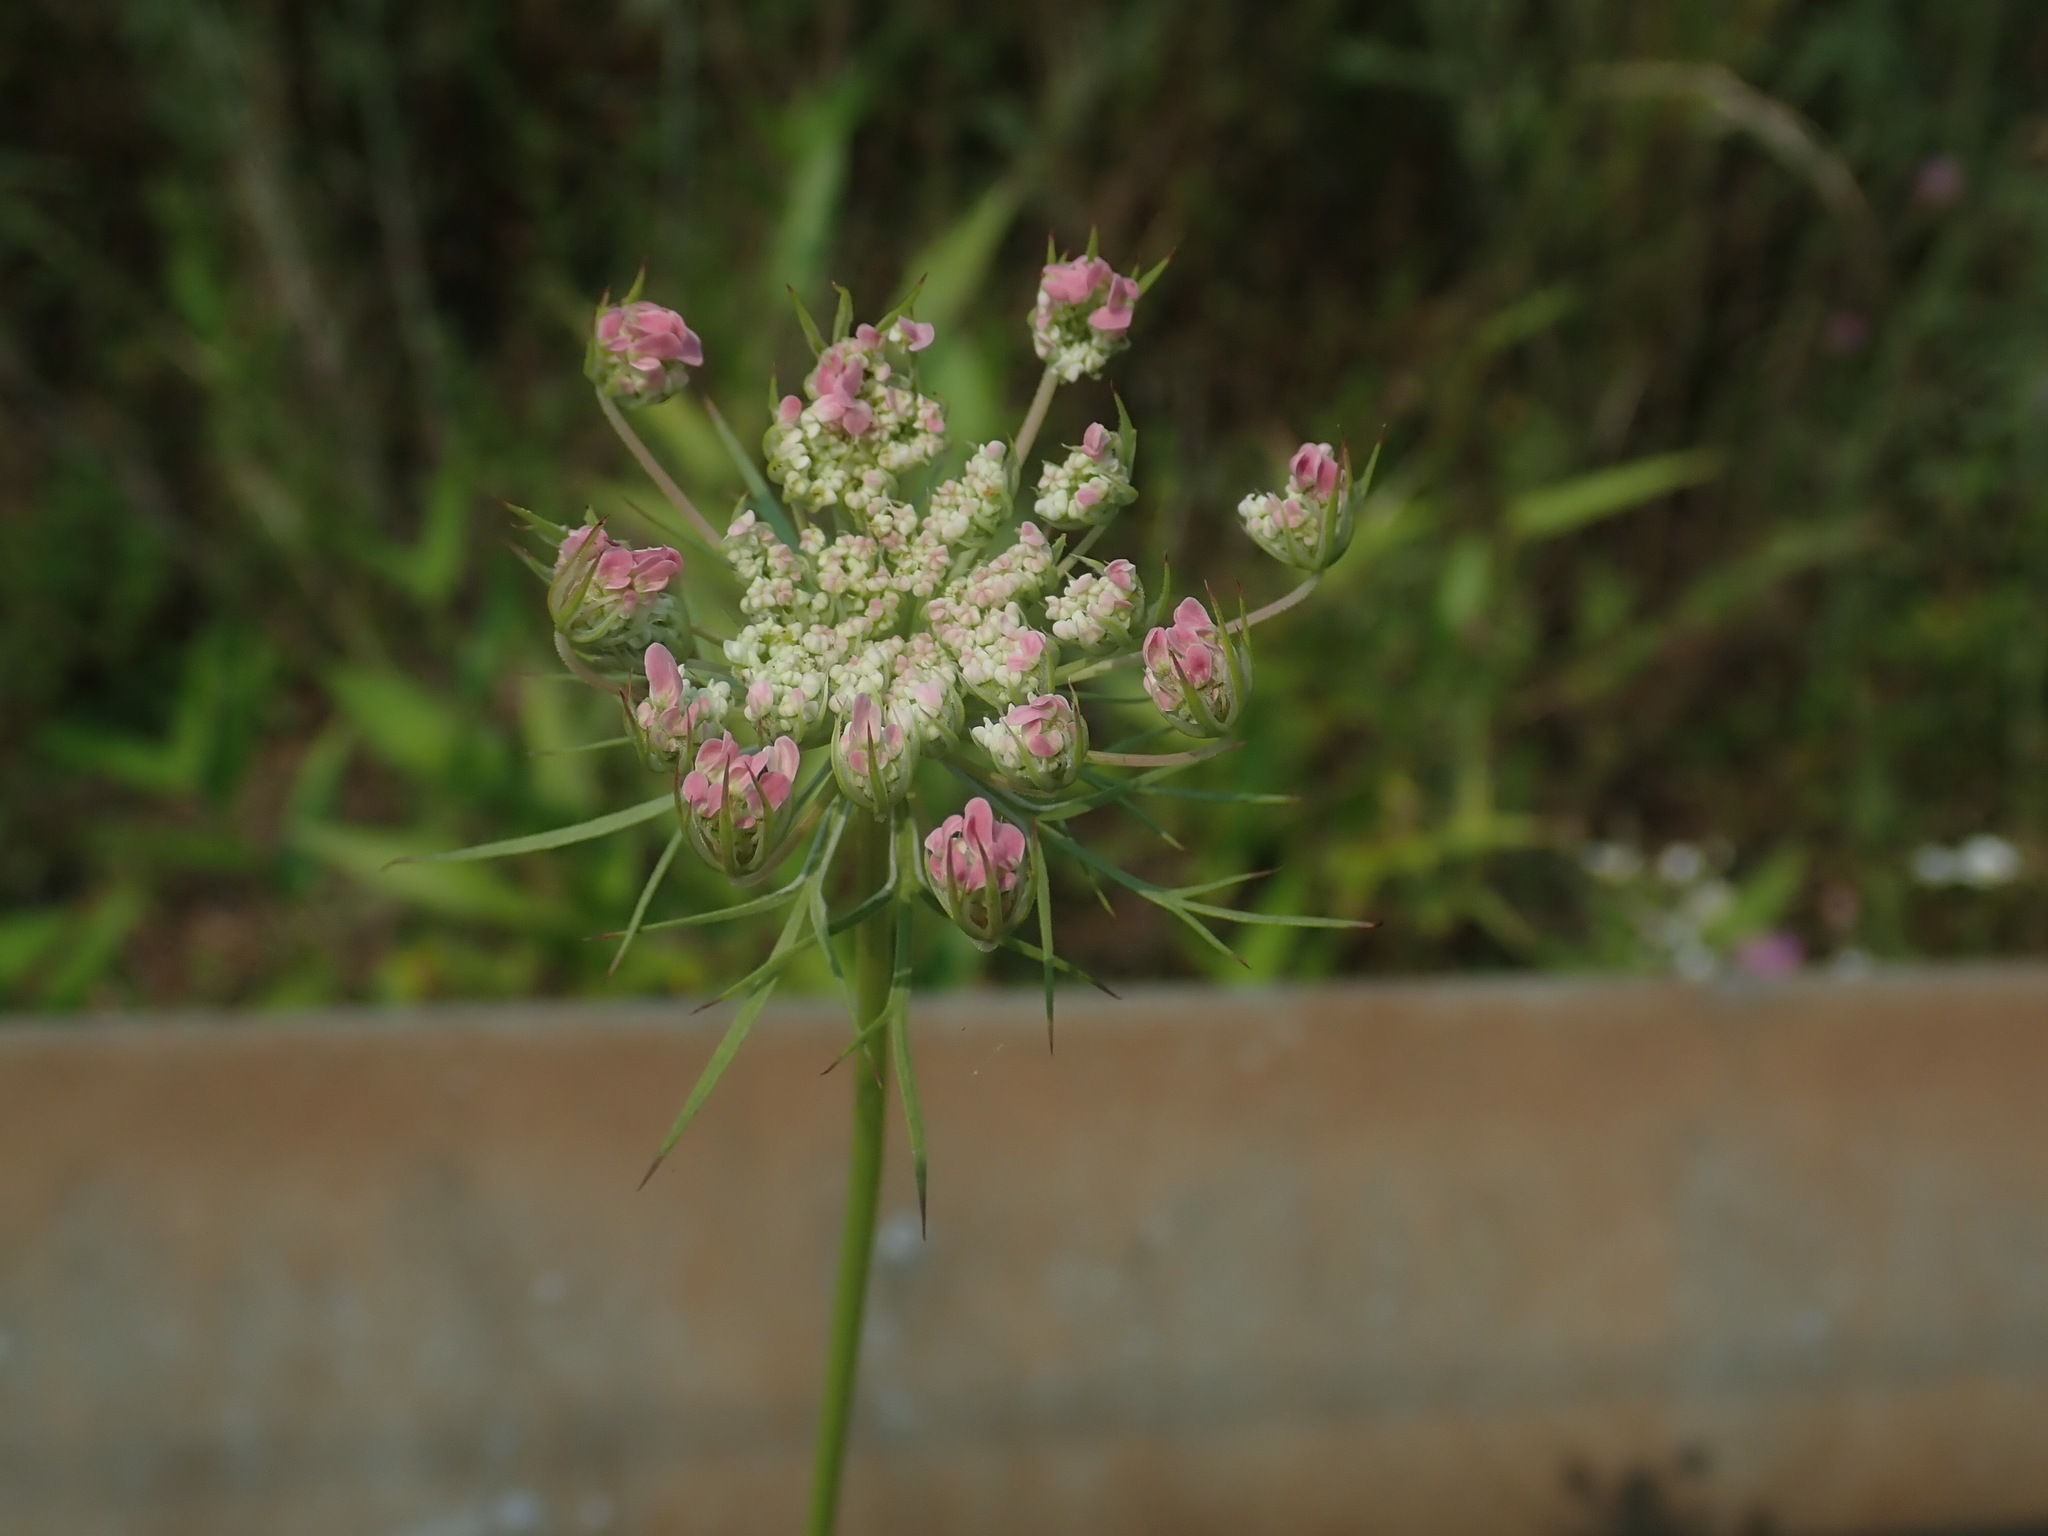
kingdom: Plantae
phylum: Tracheophyta
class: Magnoliopsida
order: Apiales
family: Apiaceae
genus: Daucus
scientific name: Daucus carota
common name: Wild carrot
